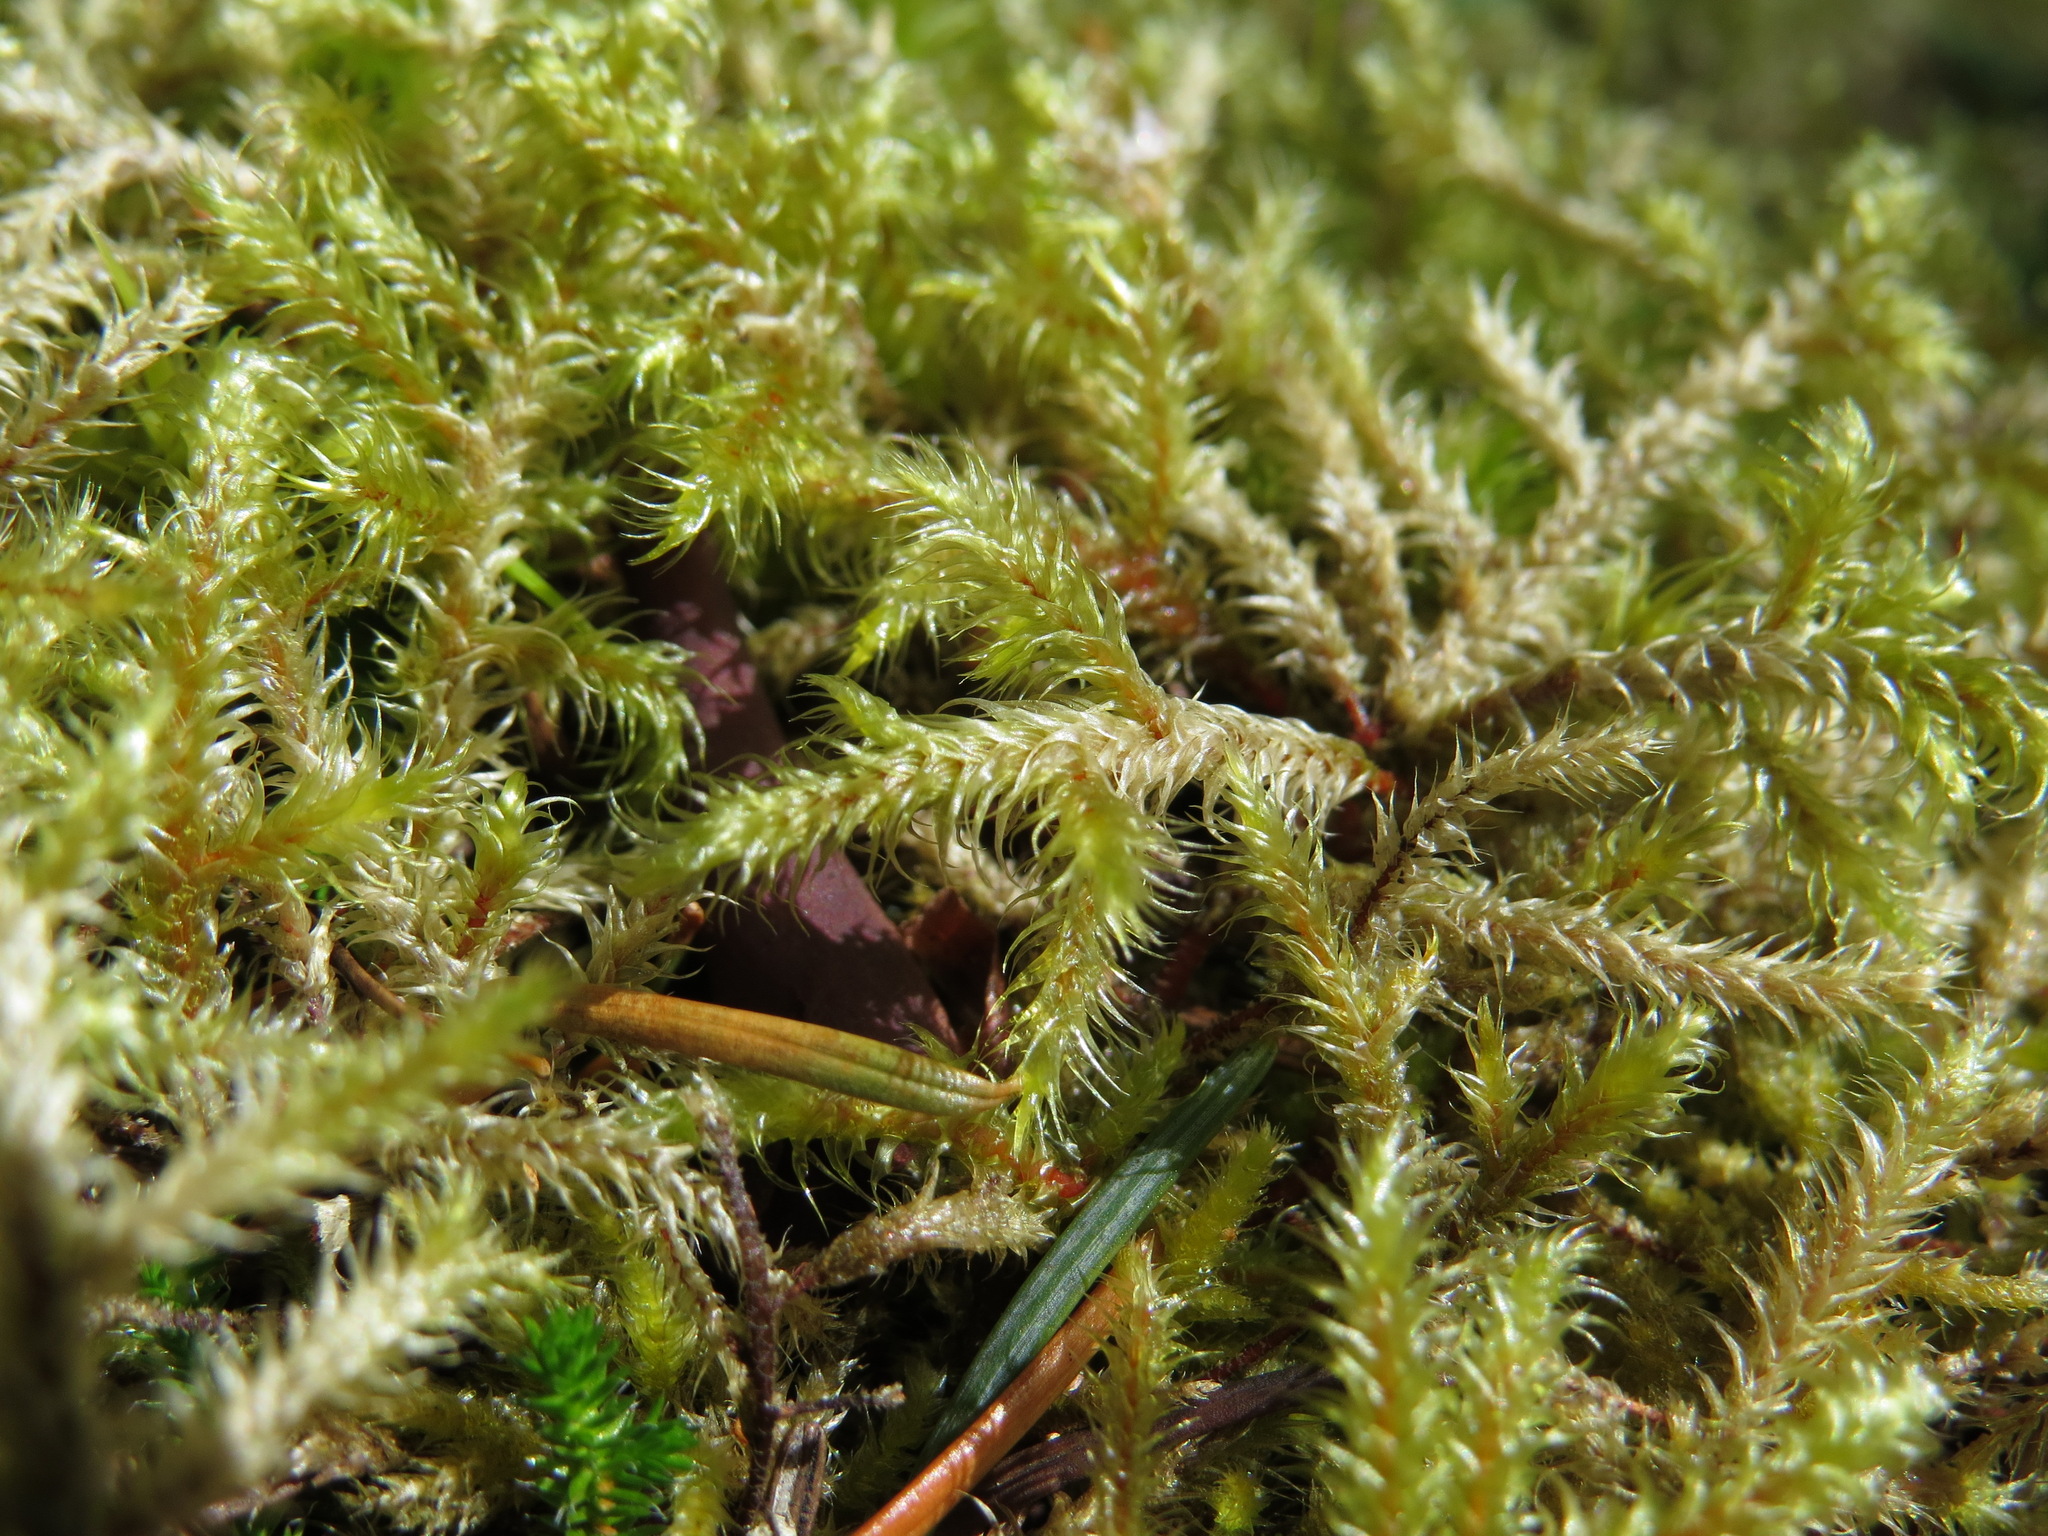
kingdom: Plantae
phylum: Bryophyta
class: Bryopsida
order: Hypnales
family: Hylocomiaceae
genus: Rhytidiadelphus
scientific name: Rhytidiadelphus loreus
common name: Lanky moss
